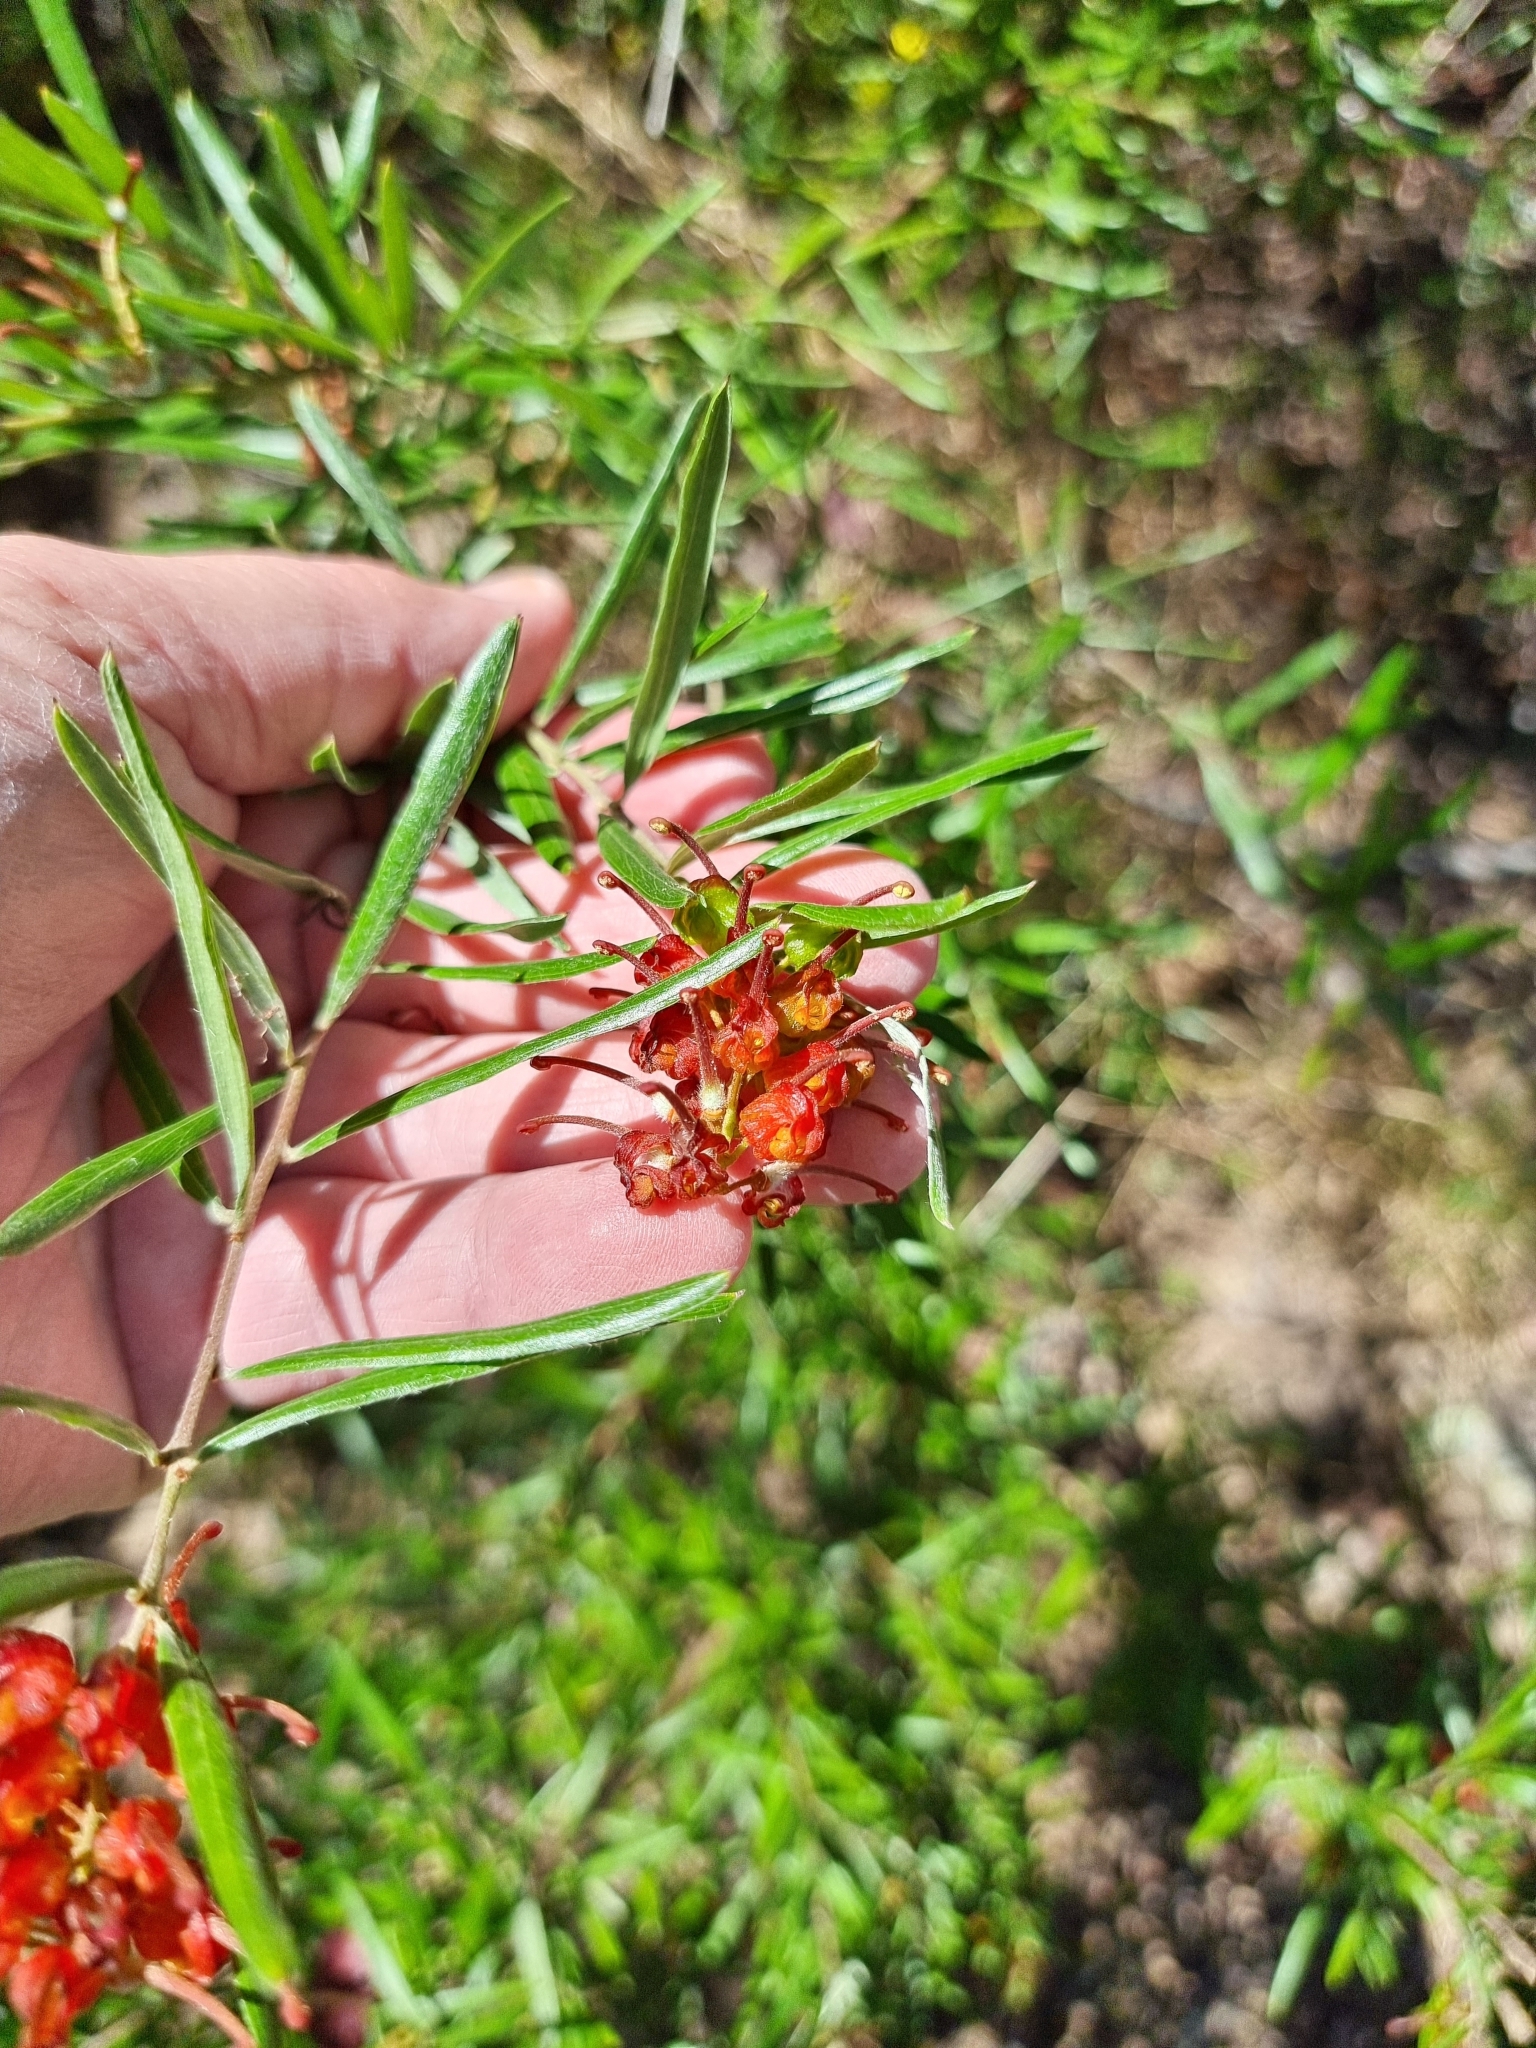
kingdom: Plantae
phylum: Tracheophyta
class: Magnoliopsida
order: Proteales
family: Proteaceae
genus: Grevillea
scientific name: Grevillea floribunda
